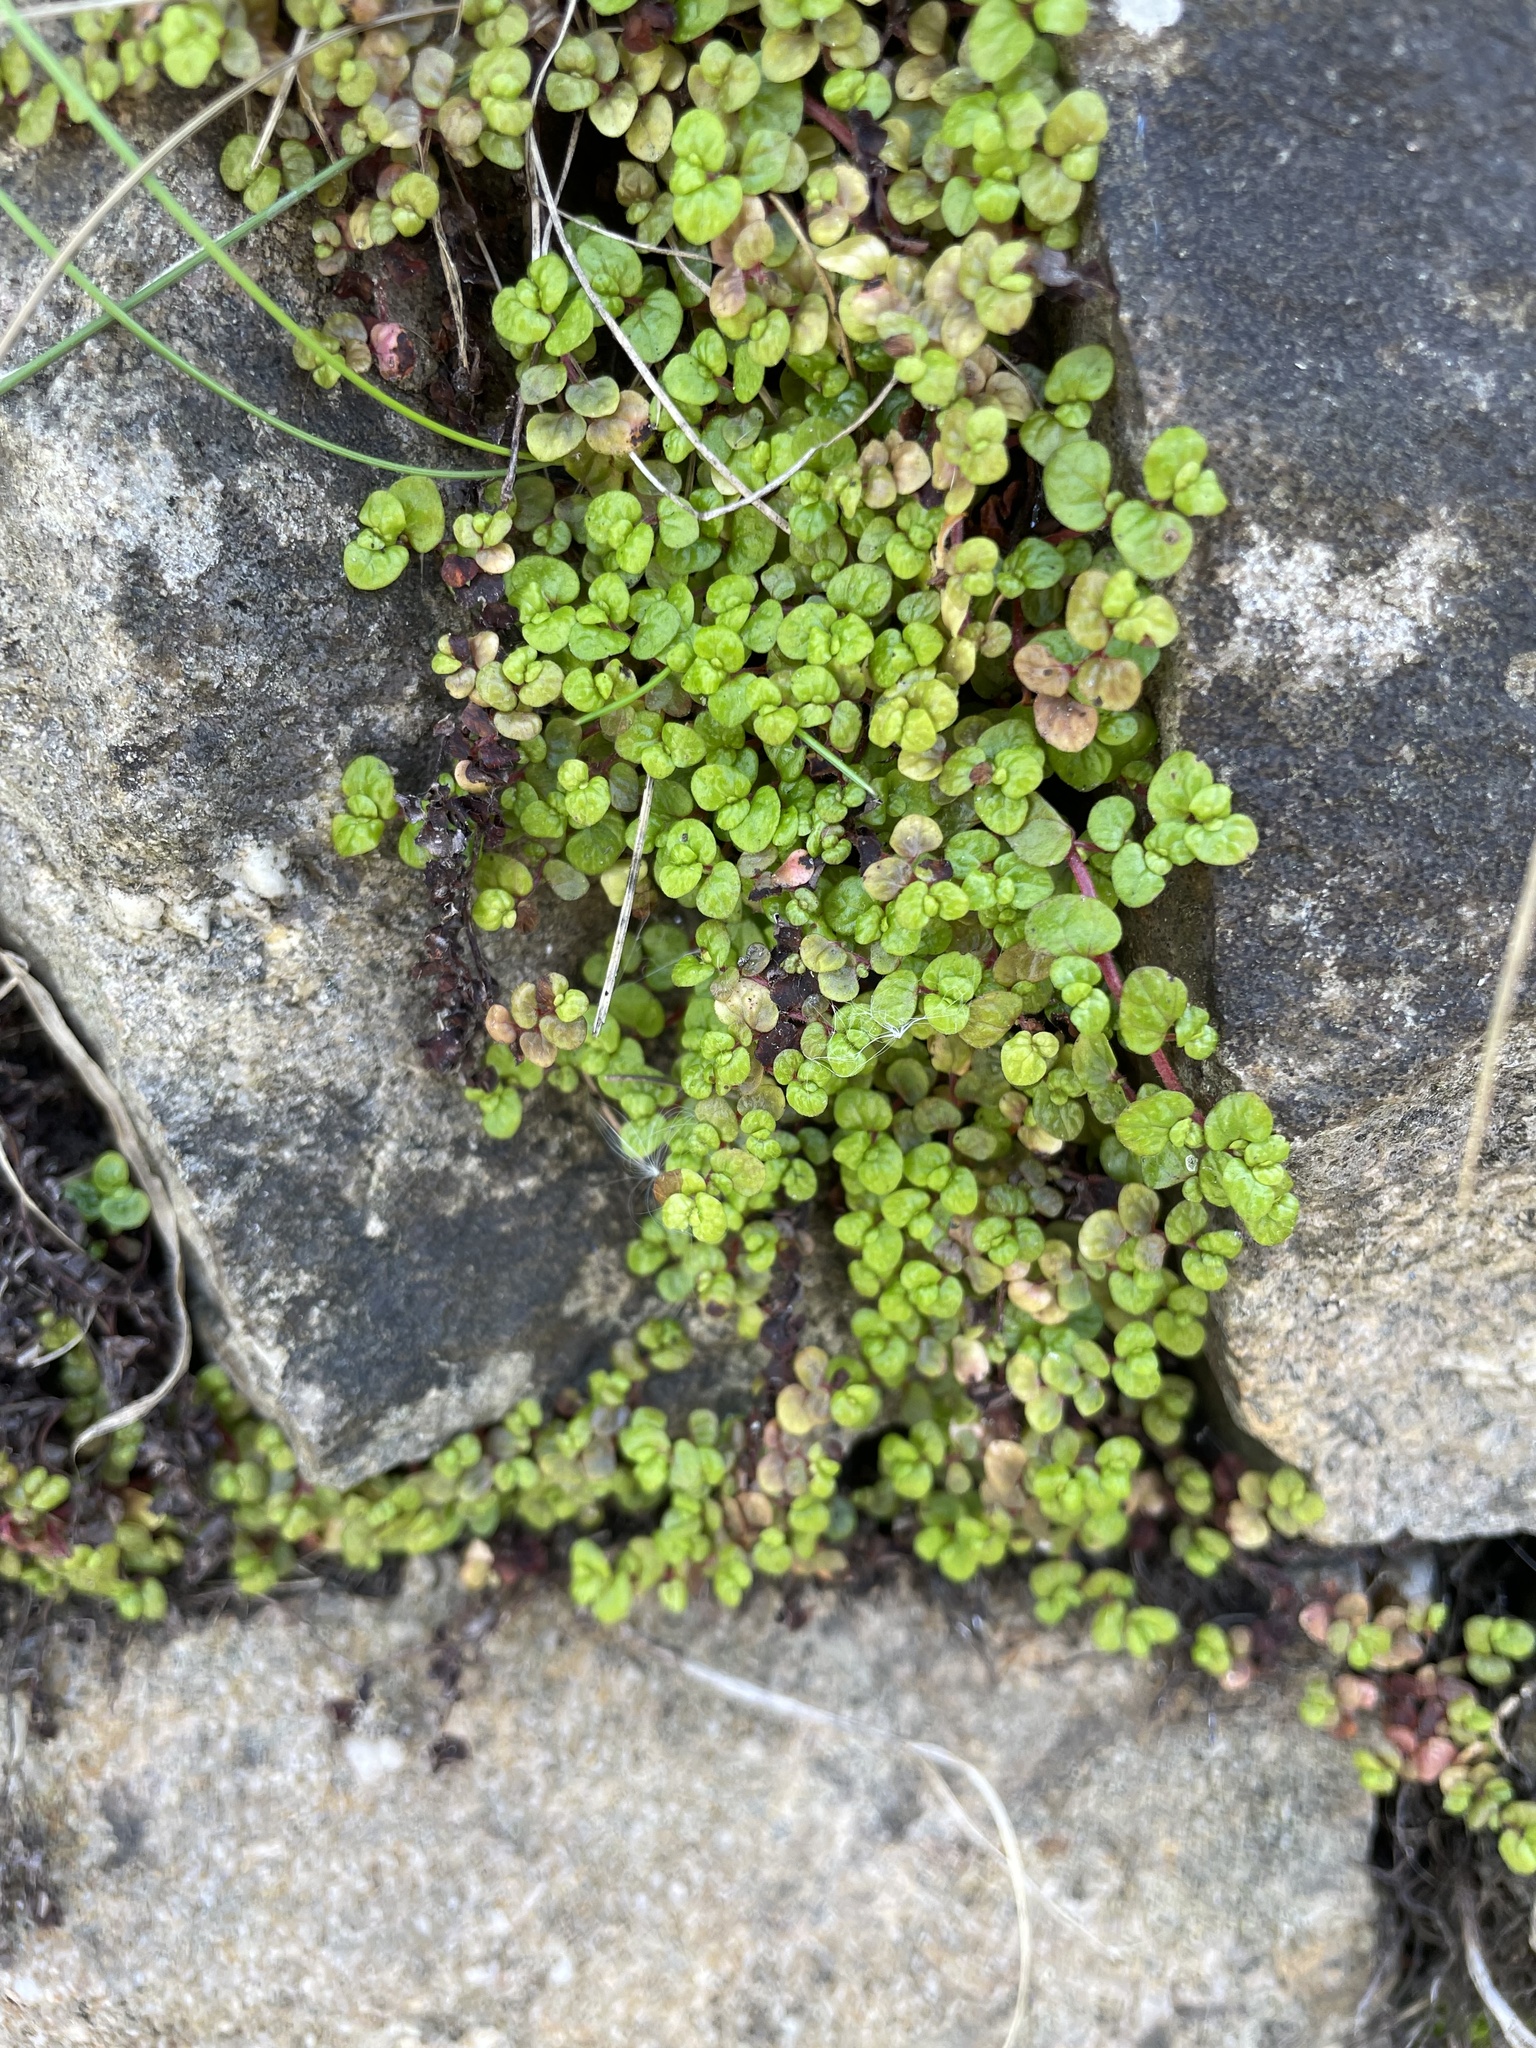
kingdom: Plantae
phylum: Tracheophyta
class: Magnoliopsida
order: Rosales
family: Urticaceae
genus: Soleirolia
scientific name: Soleirolia soleirolii
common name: Mind-your-own-business
